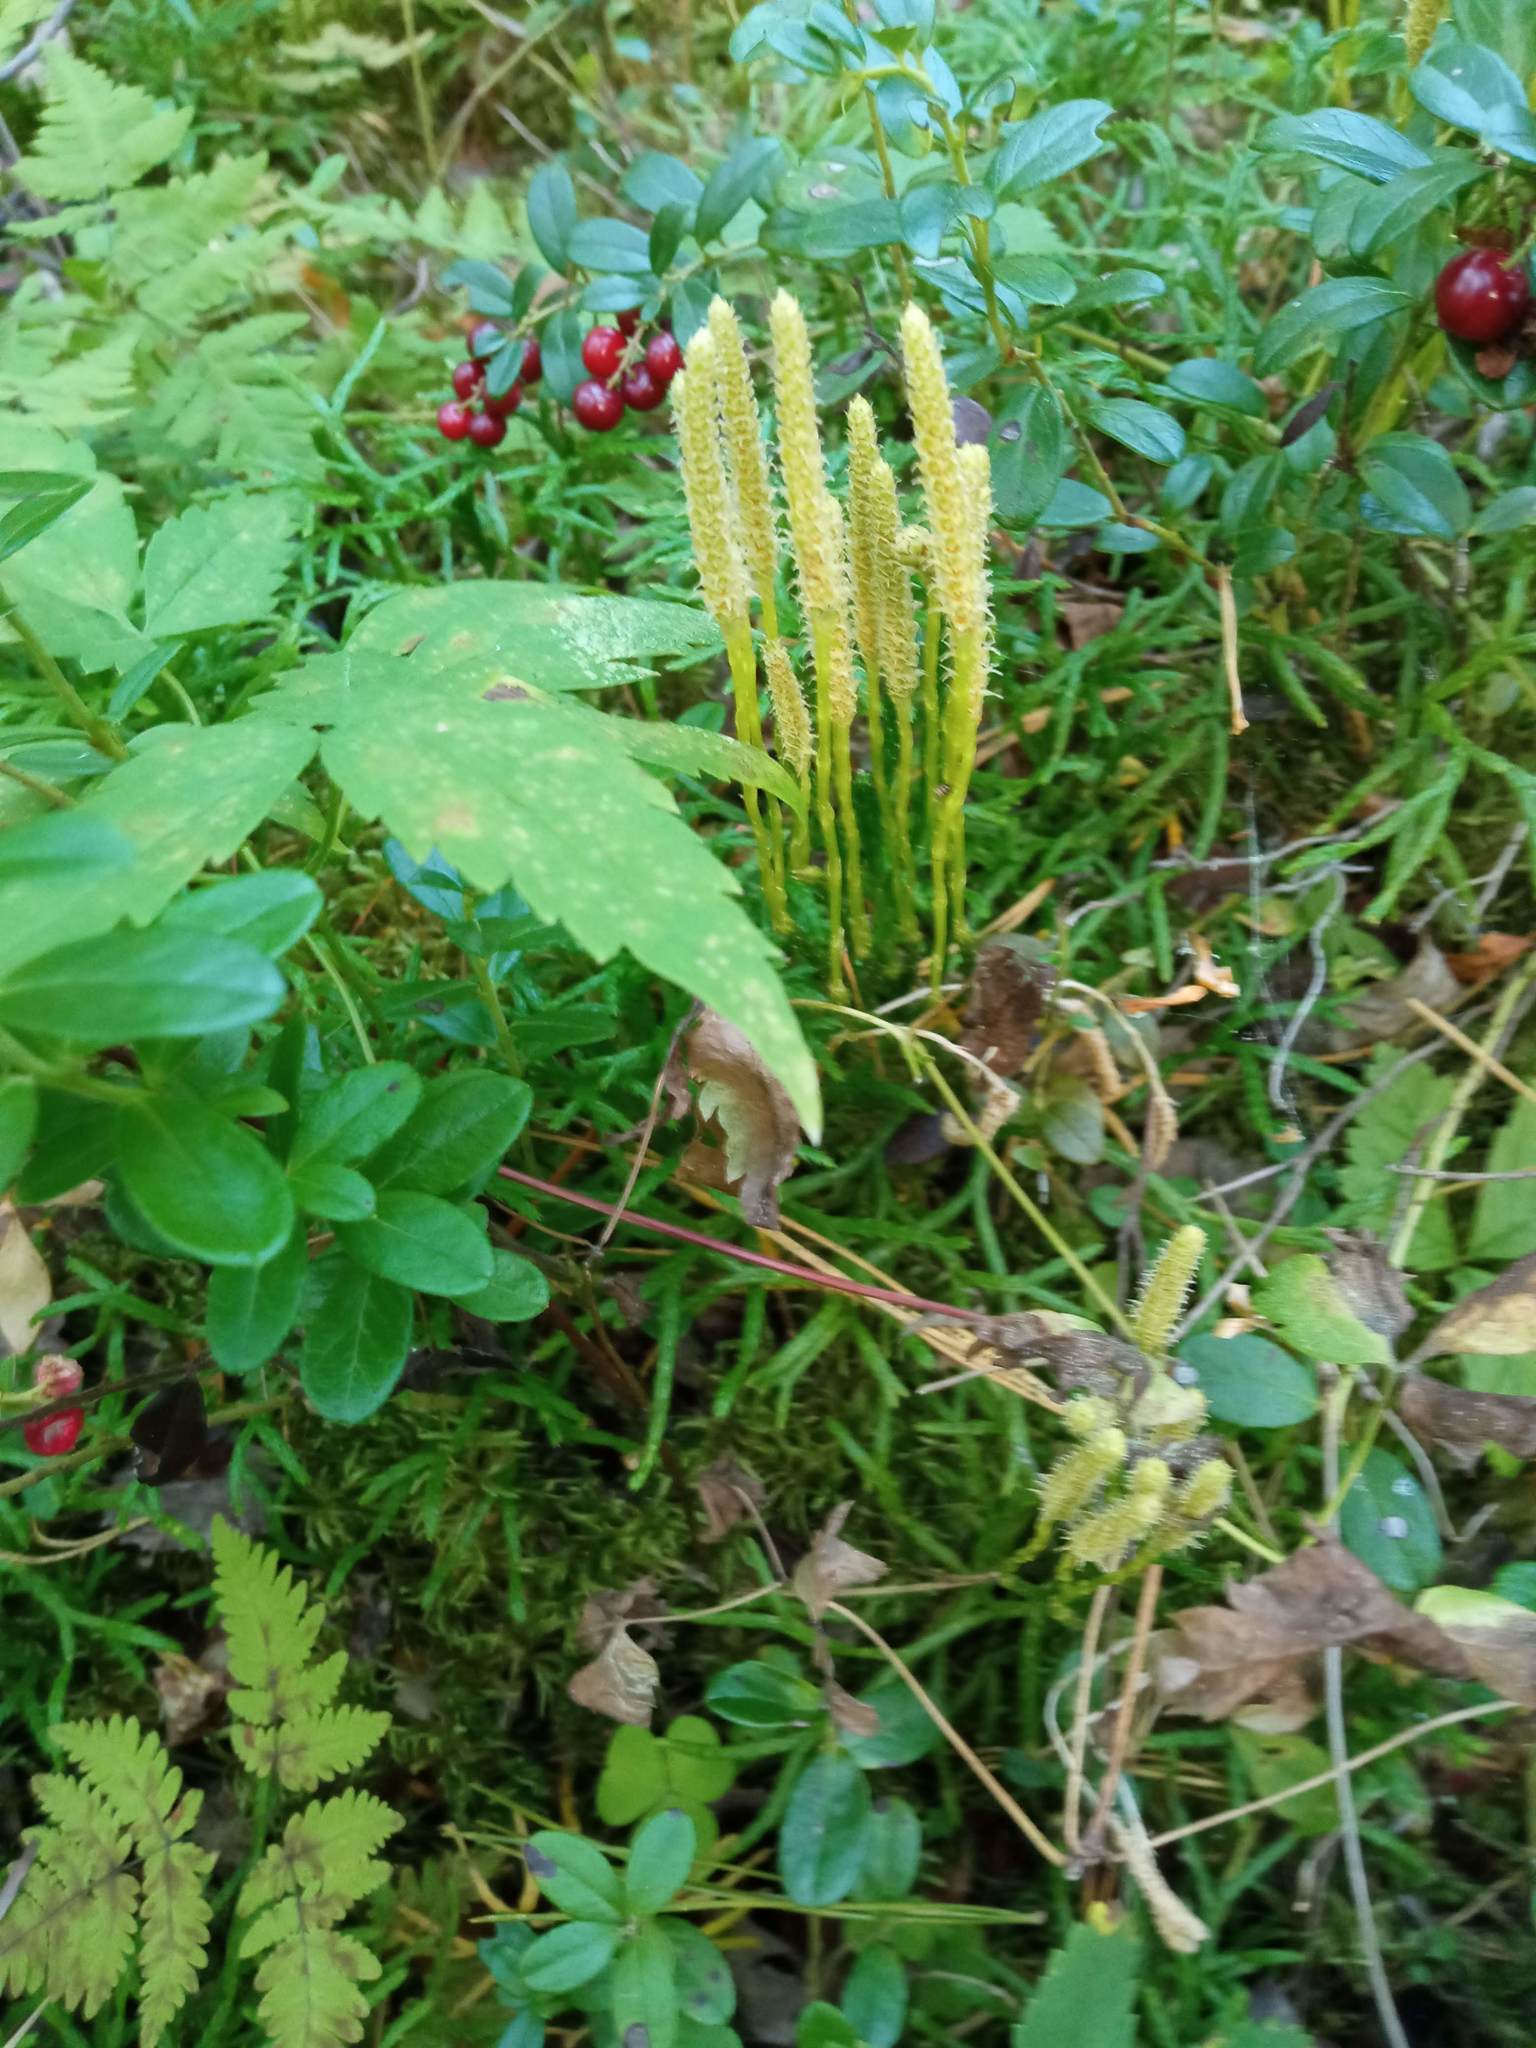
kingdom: Plantae
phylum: Tracheophyta
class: Lycopodiopsida
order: Lycopodiales
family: Lycopodiaceae
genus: Diphasiastrum
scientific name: Diphasiastrum complanatum
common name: Northern running-pine
